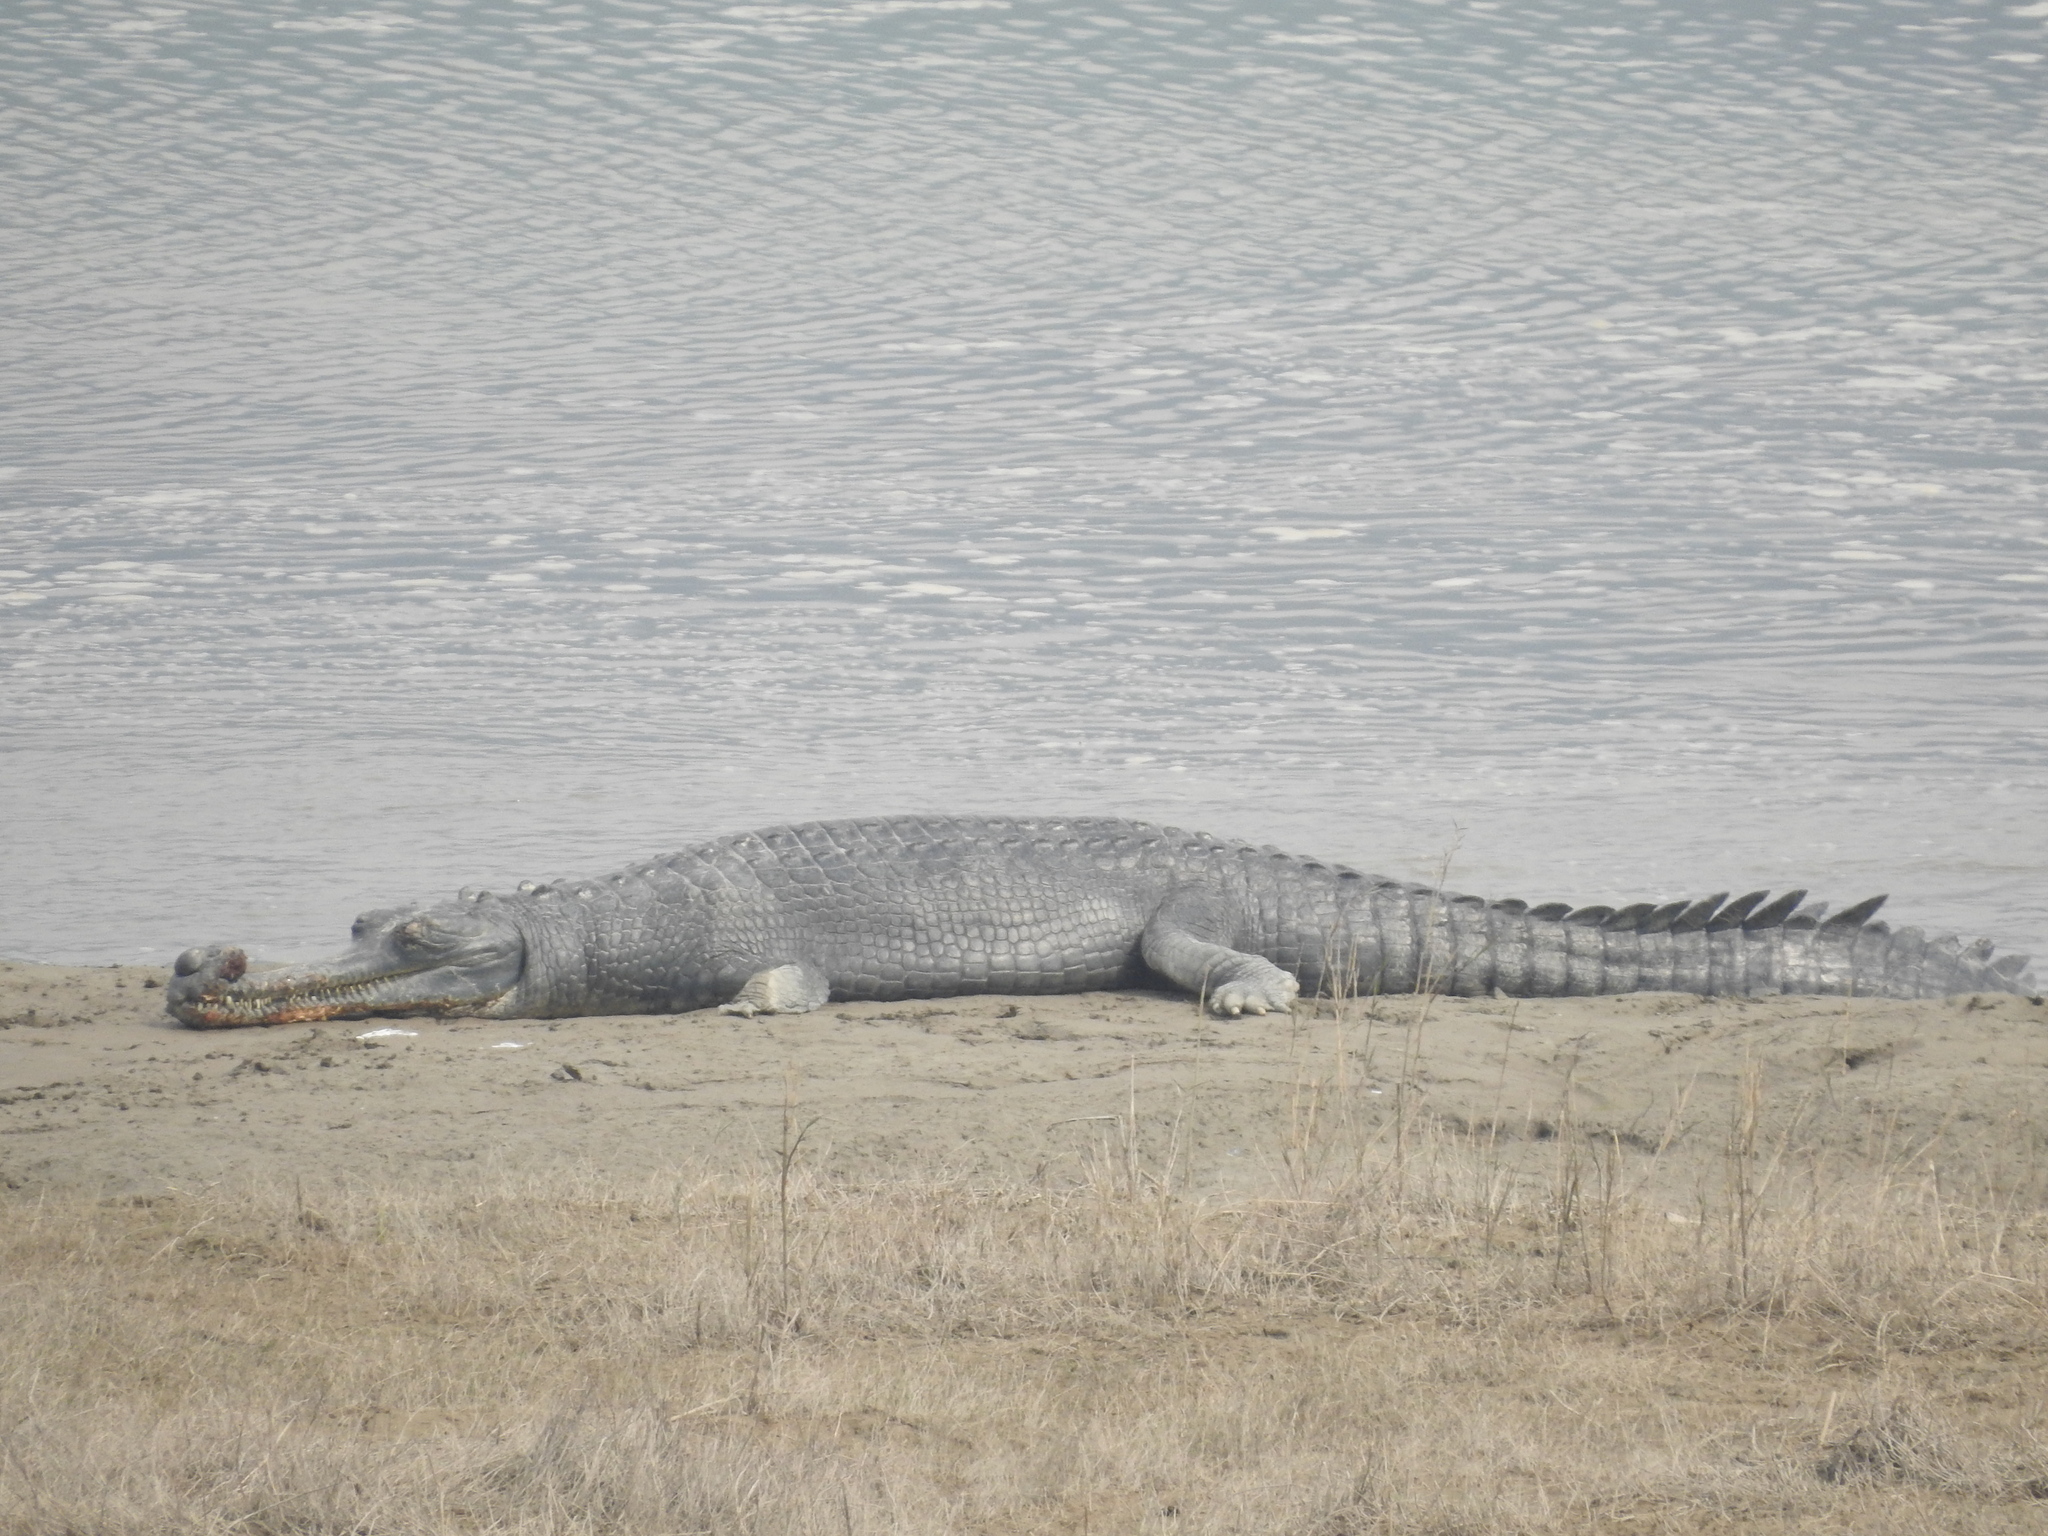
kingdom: Animalia
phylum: Chordata
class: Crocodylia
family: Gavialidae
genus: Gavialis
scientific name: Gavialis gangeticus
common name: Gharial
